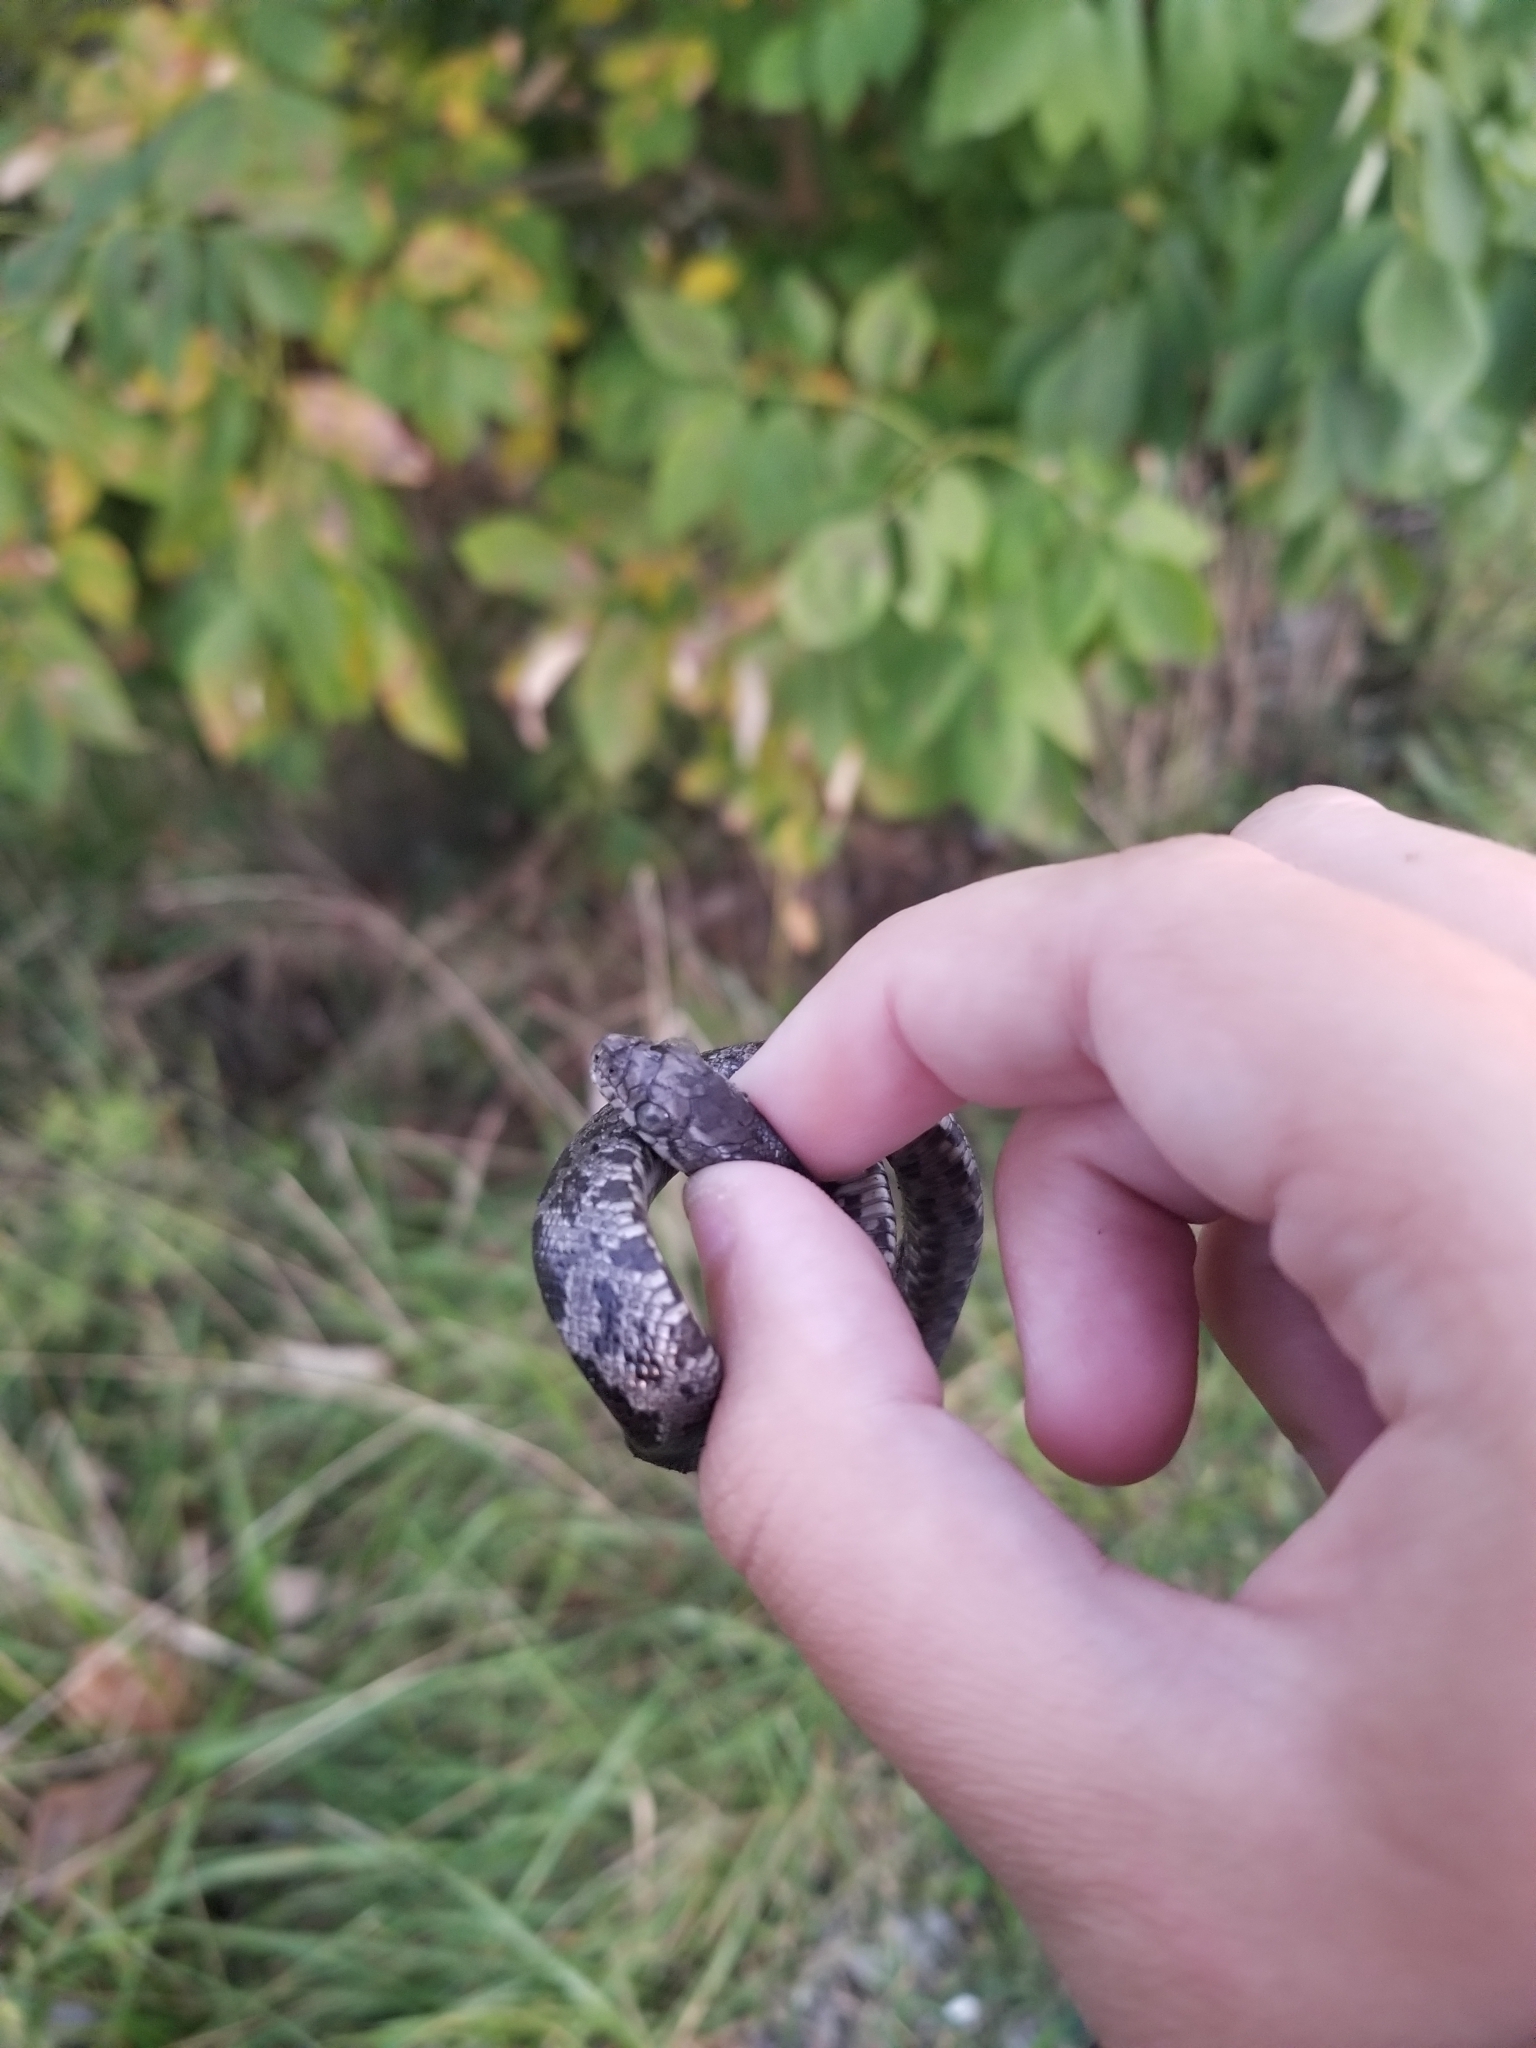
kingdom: Animalia
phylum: Chordata
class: Squamata
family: Colubridae
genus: Pantherophis
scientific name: Pantherophis spiloides
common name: Gray rat snake
